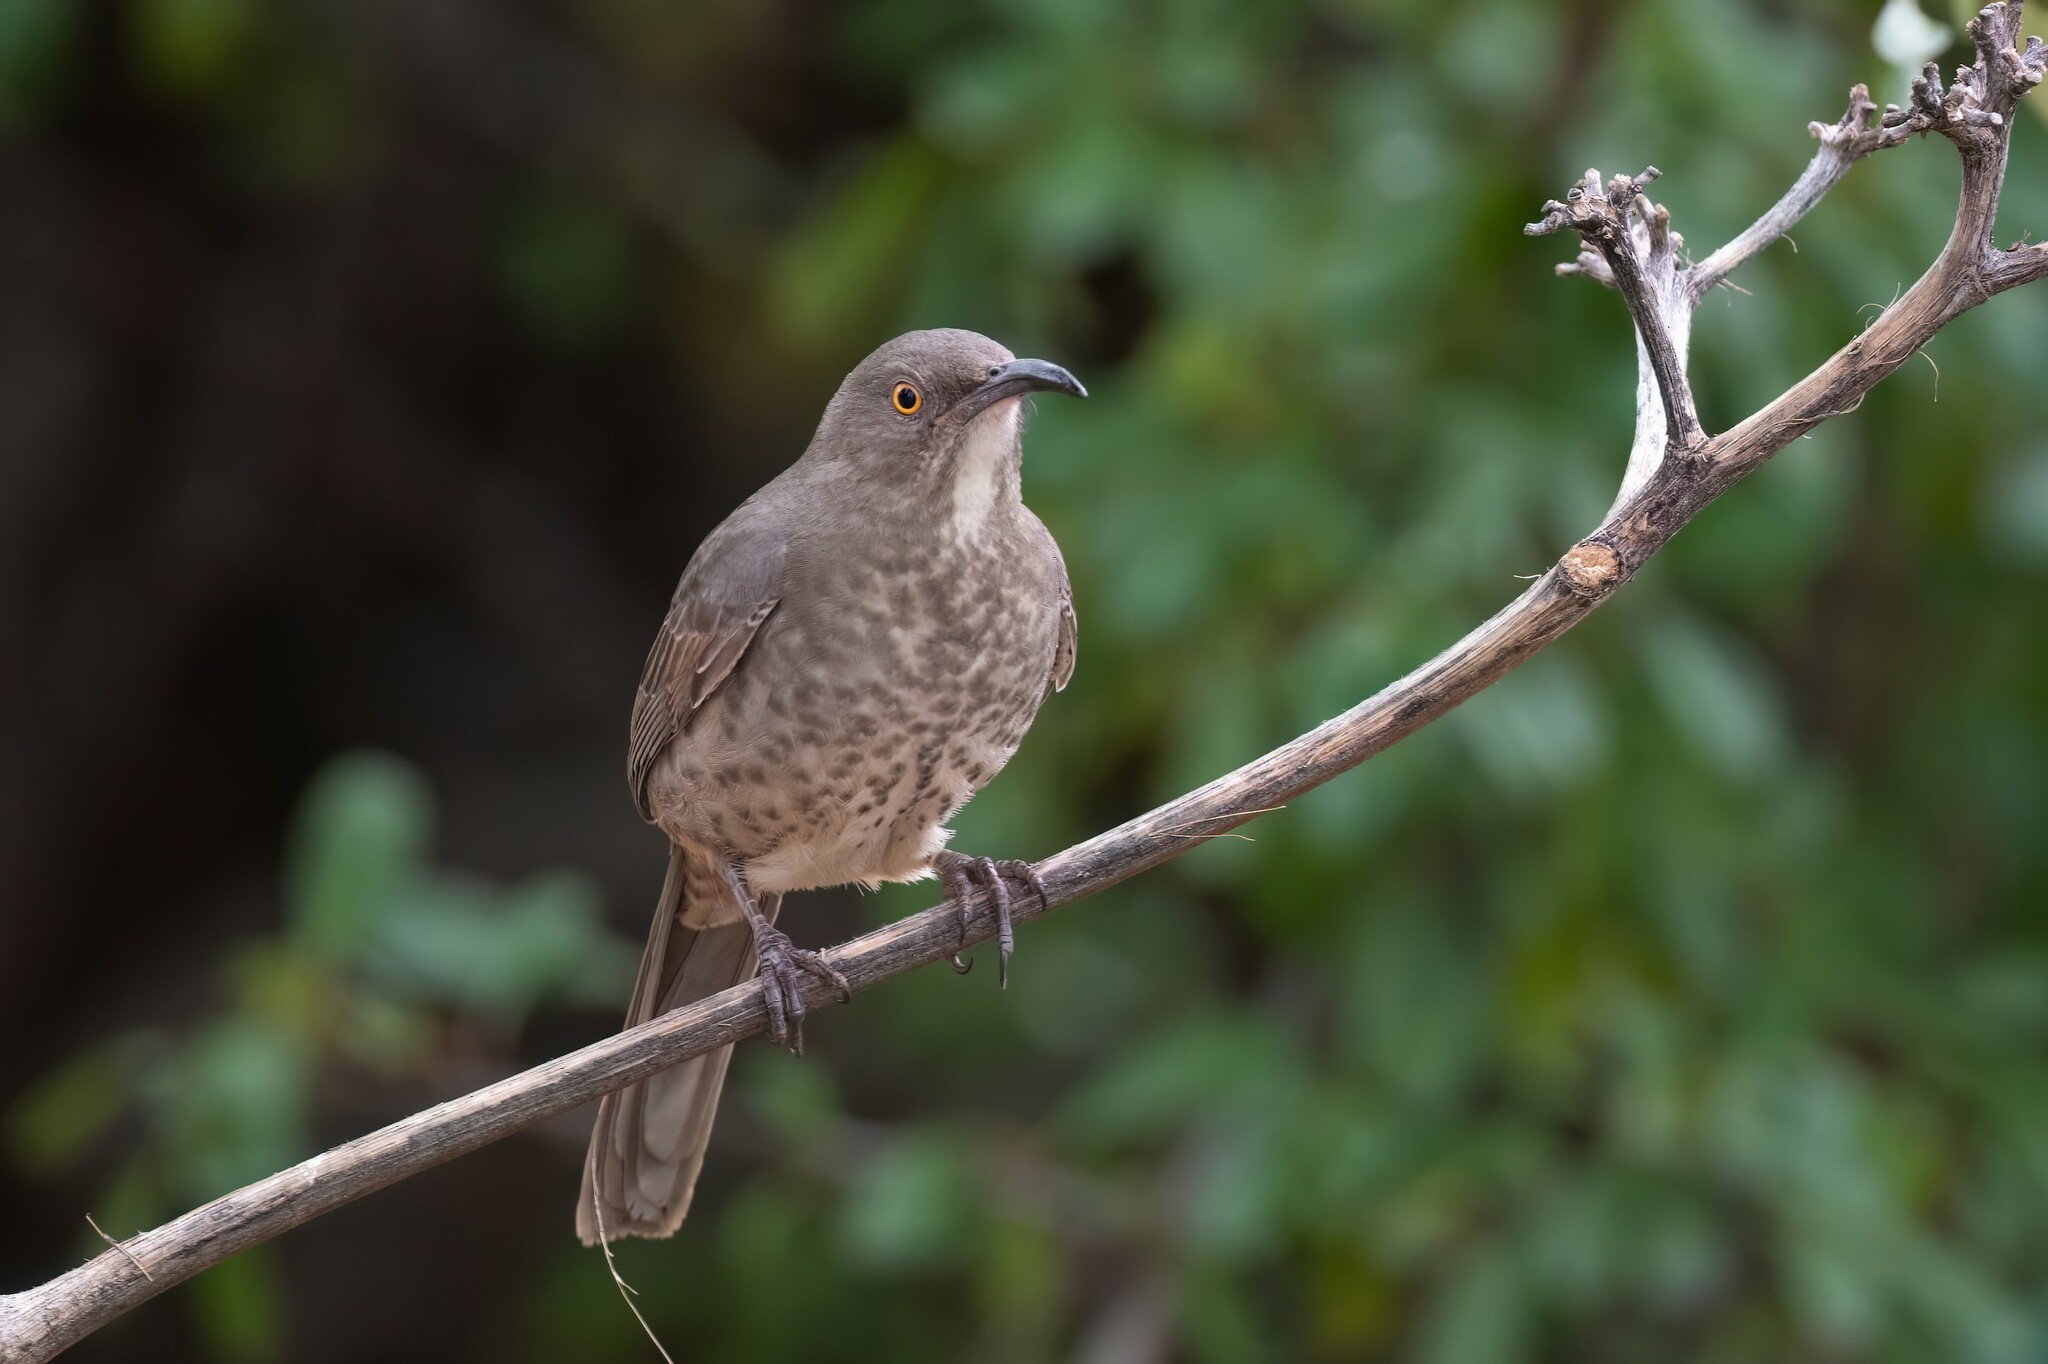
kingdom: Animalia
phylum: Chordata
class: Aves
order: Passeriformes
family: Mimidae
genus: Toxostoma
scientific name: Toxostoma curvirostre
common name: Curve-billed thrasher
